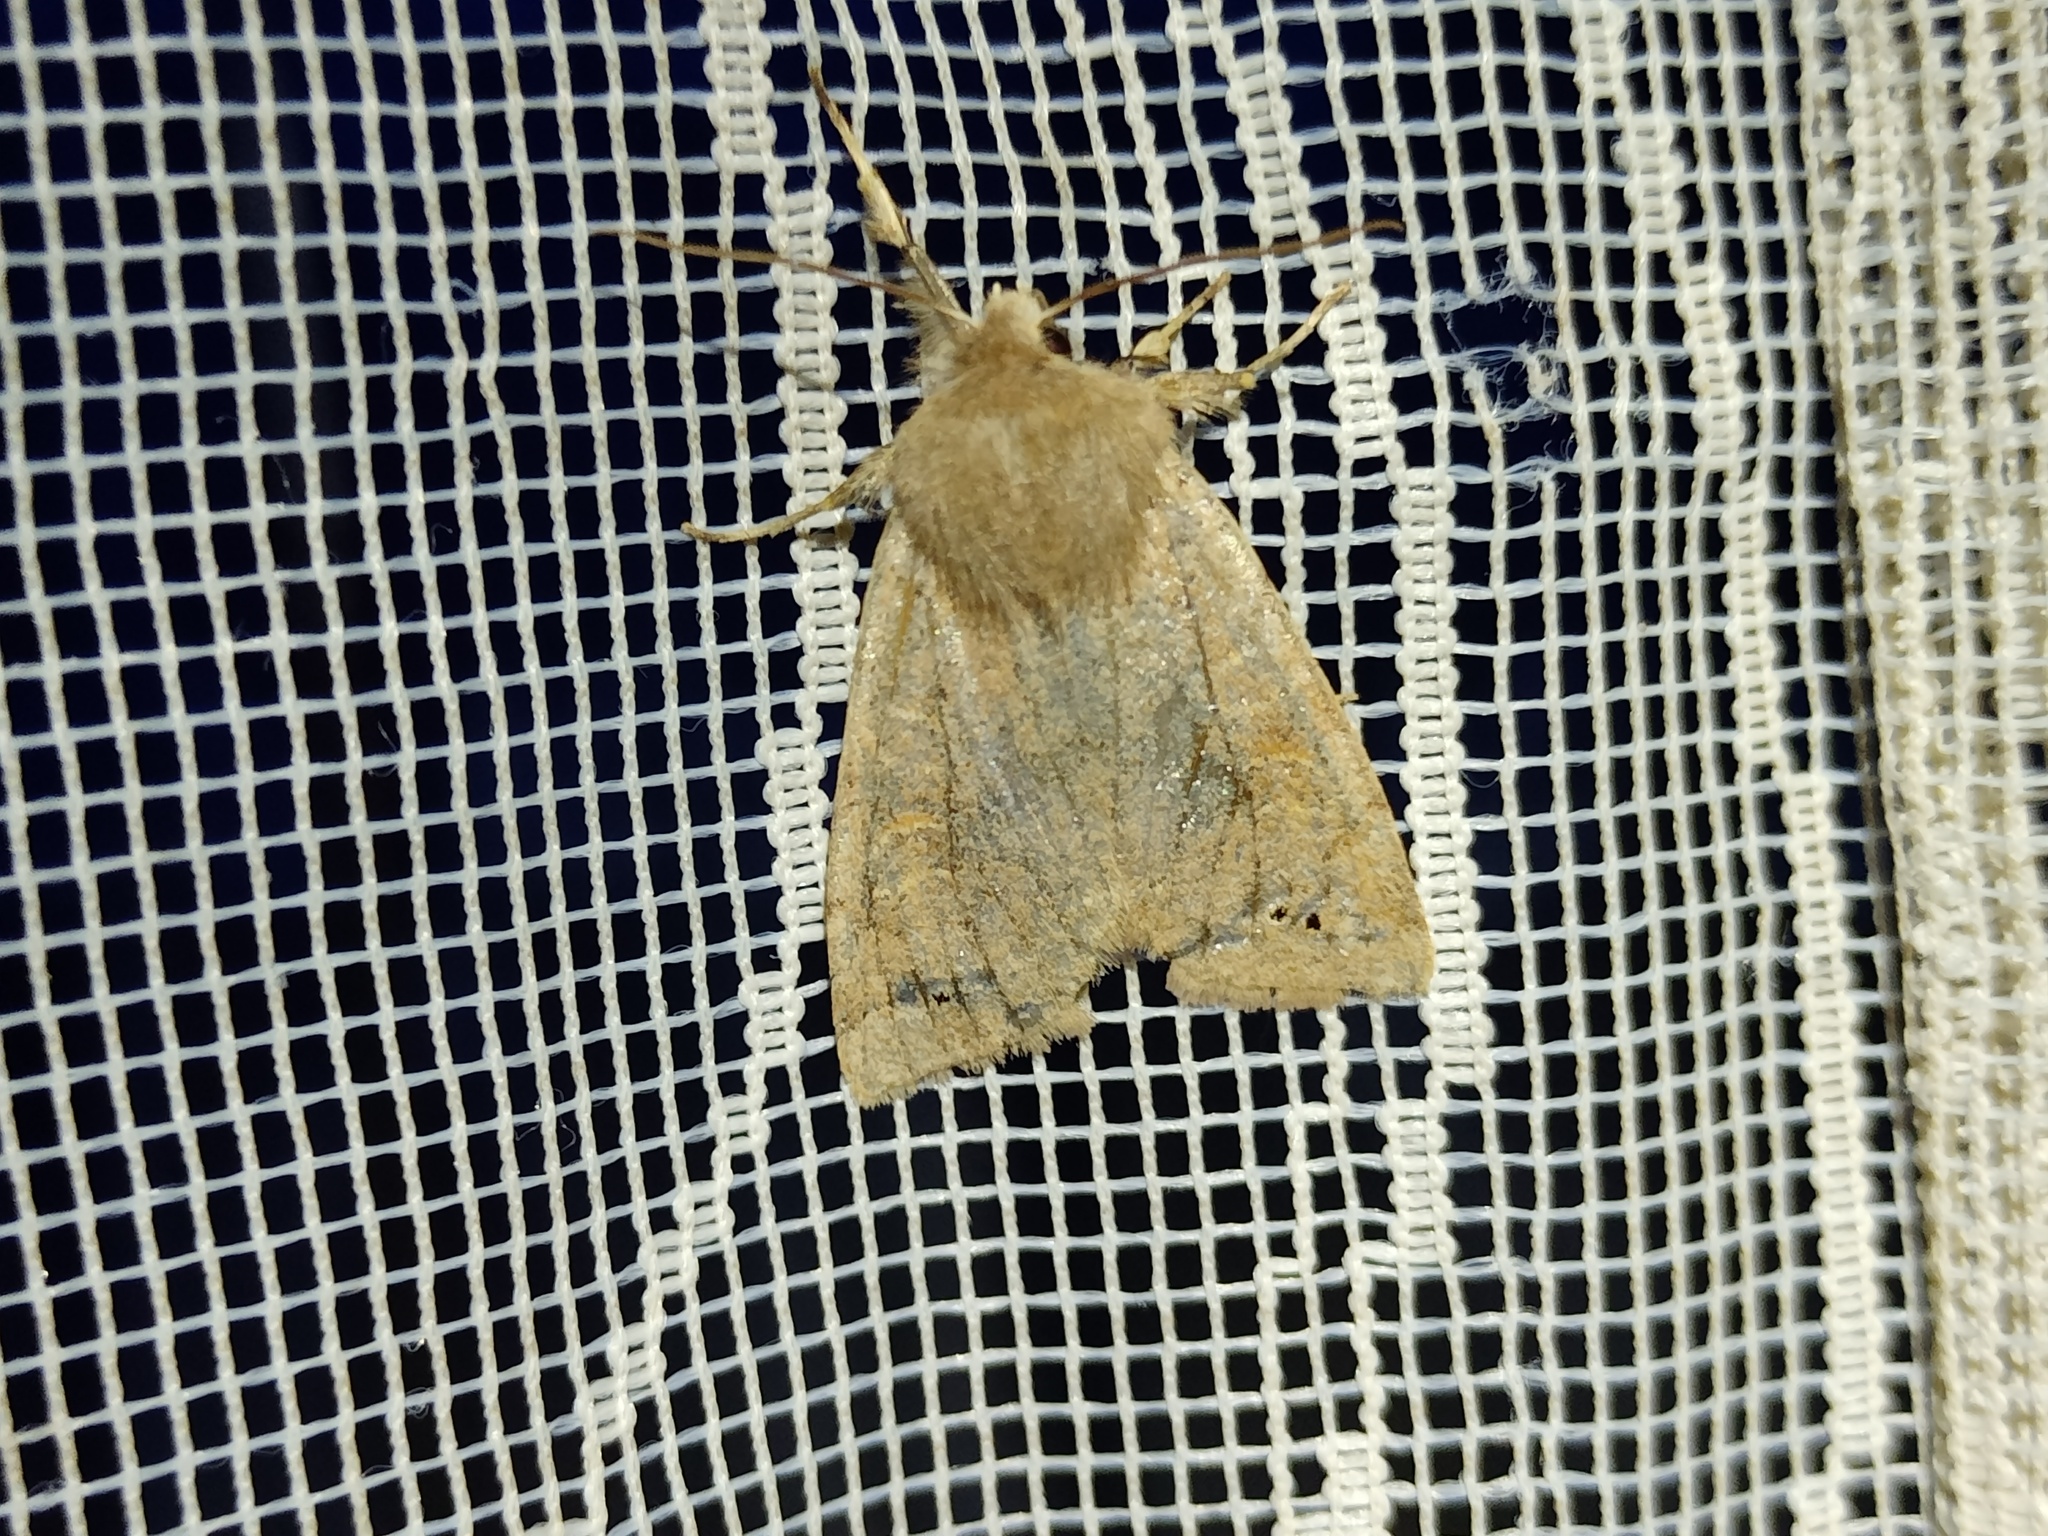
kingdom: Animalia
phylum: Arthropoda
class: Insecta
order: Lepidoptera
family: Noctuidae
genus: Anorthoa
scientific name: Anorthoa munda
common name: Twin-spotted quaker
